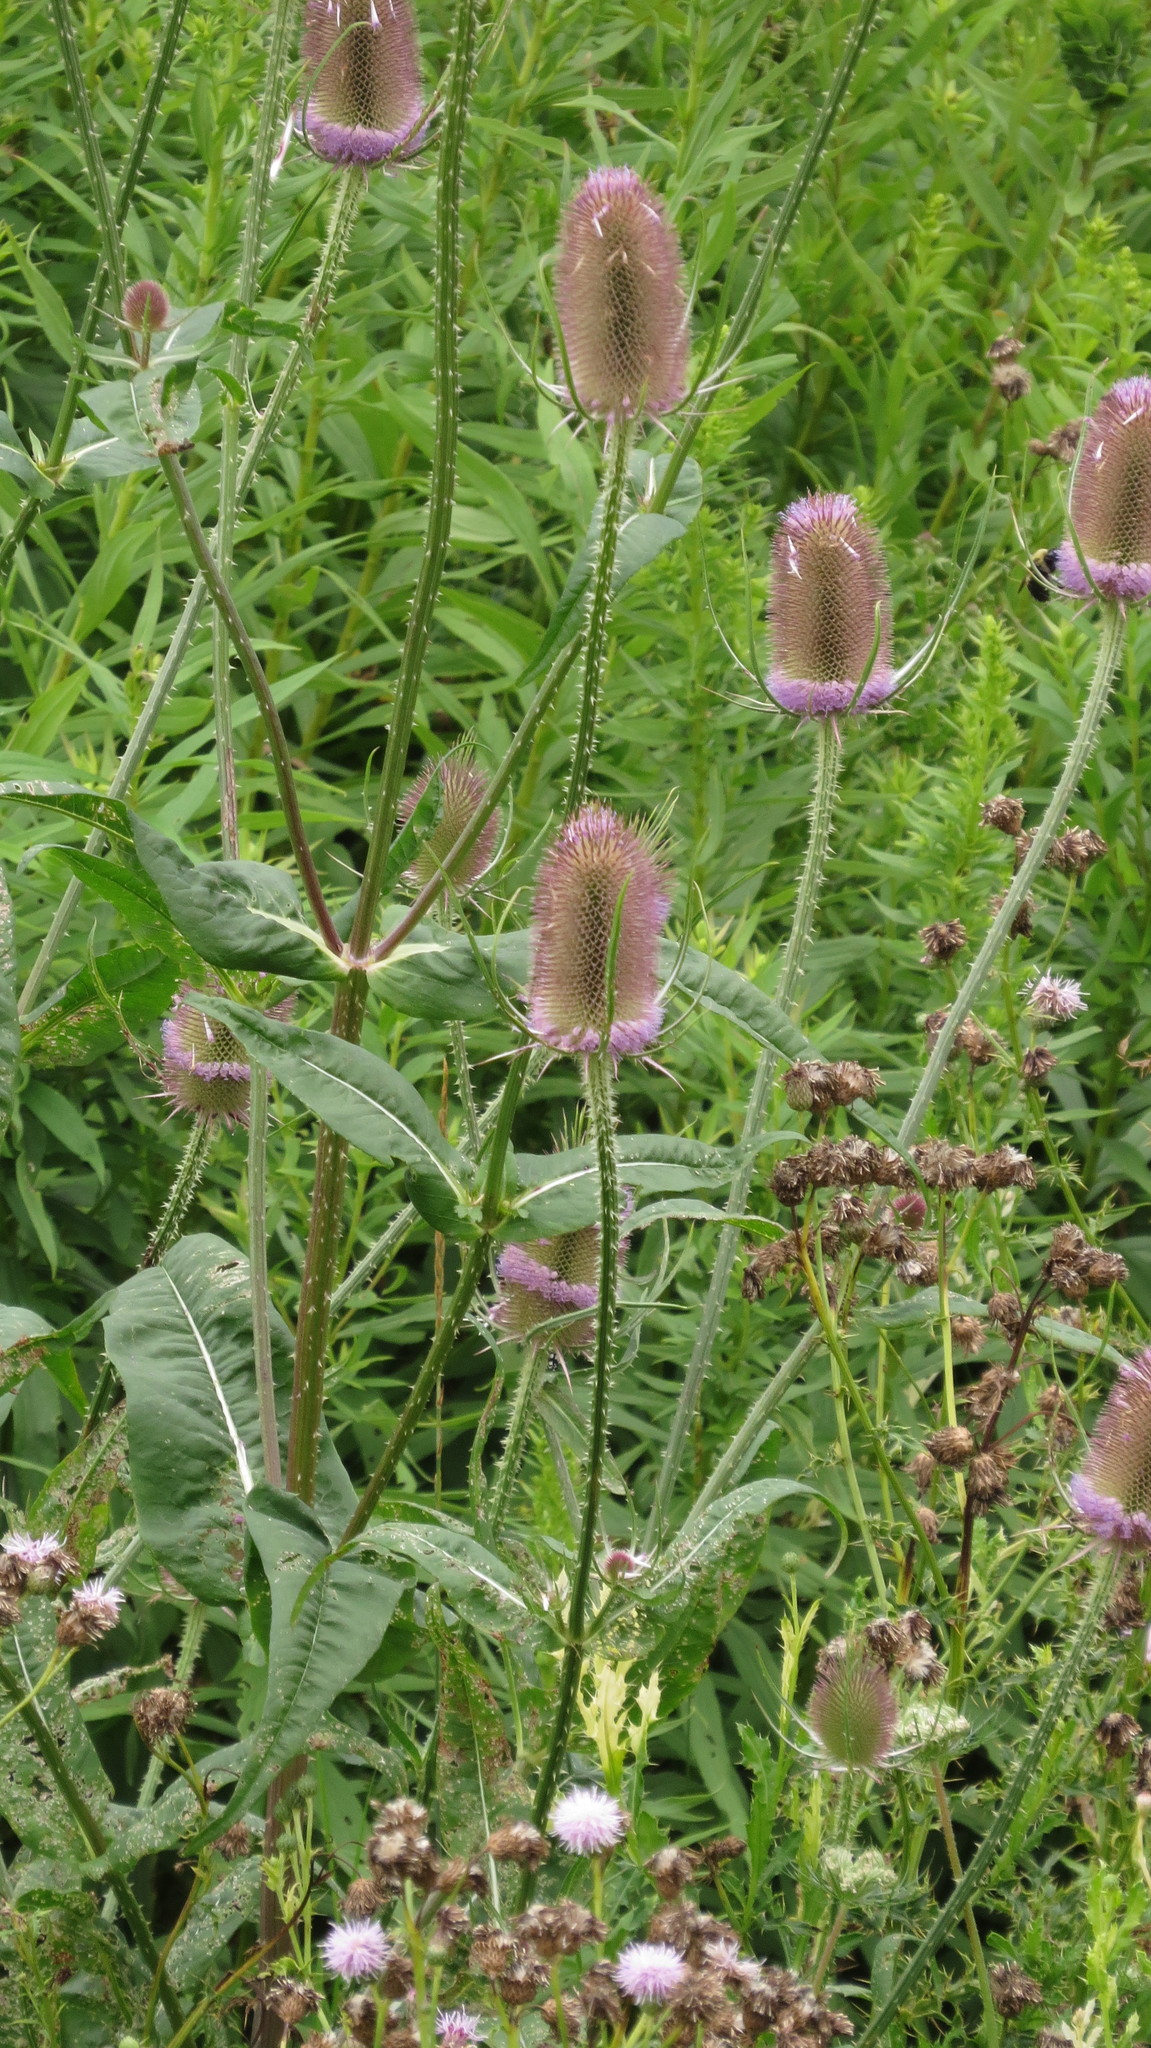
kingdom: Plantae
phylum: Tracheophyta
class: Magnoliopsida
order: Dipsacales
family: Caprifoliaceae
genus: Dipsacus
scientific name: Dipsacus fullonum
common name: Teasel
